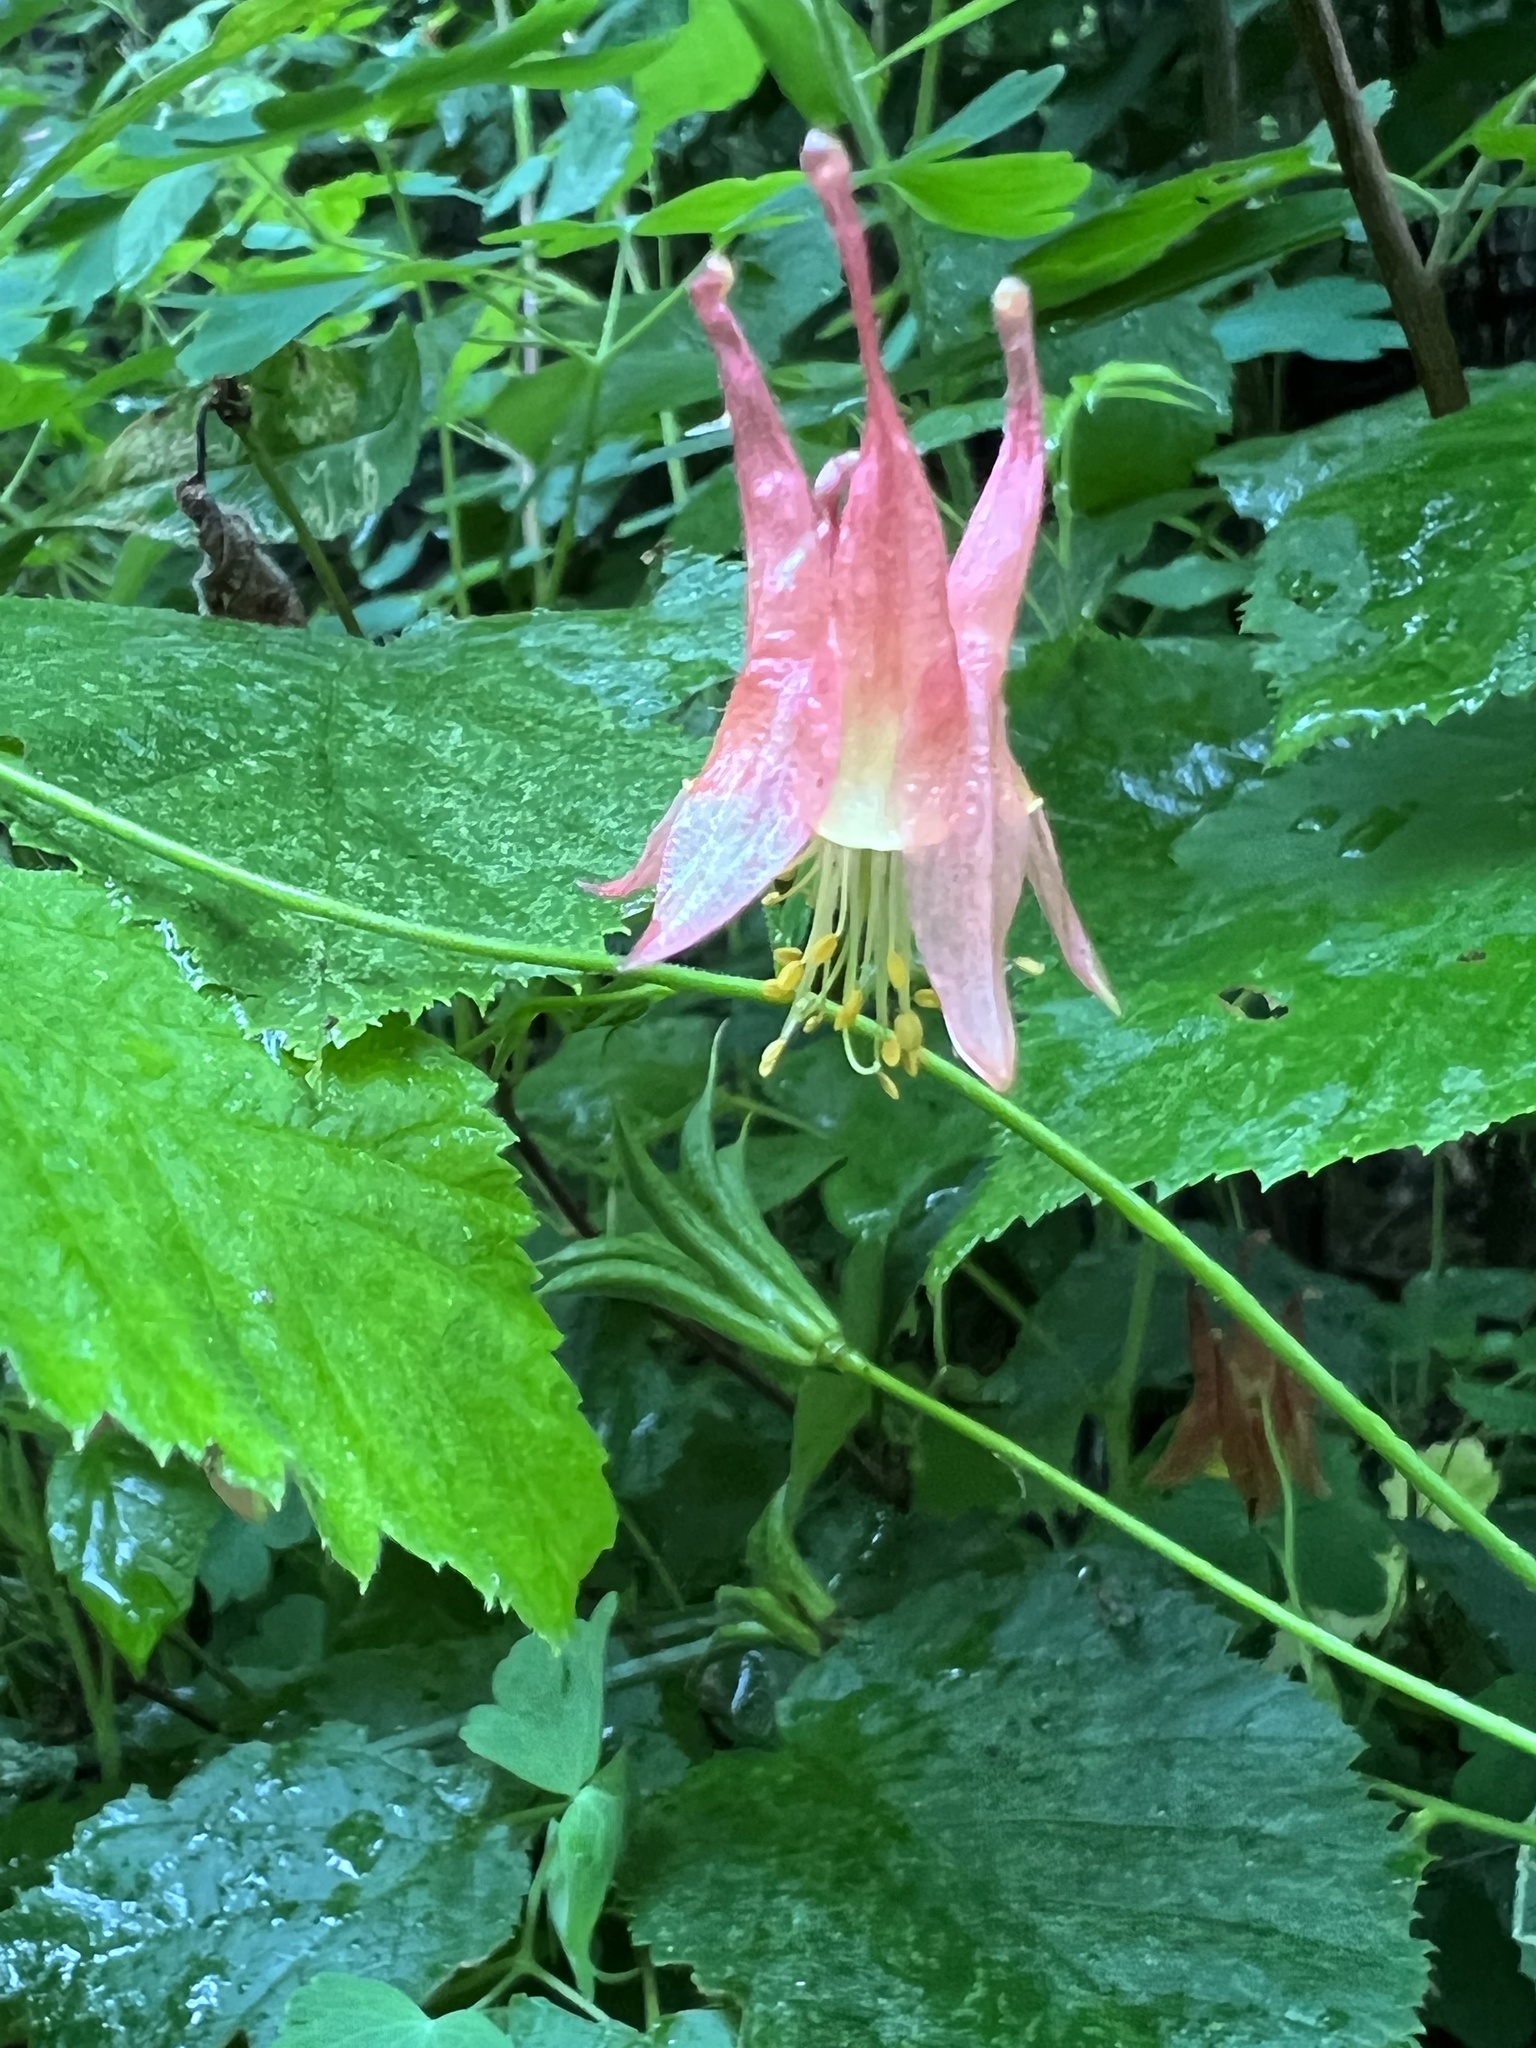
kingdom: Plantae
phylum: Tracheophyta
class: Magnoliopsida
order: Ranunculales
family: Ranunculaceae
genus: Aquilegia
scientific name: Aquilegia canadensis
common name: American columbine
